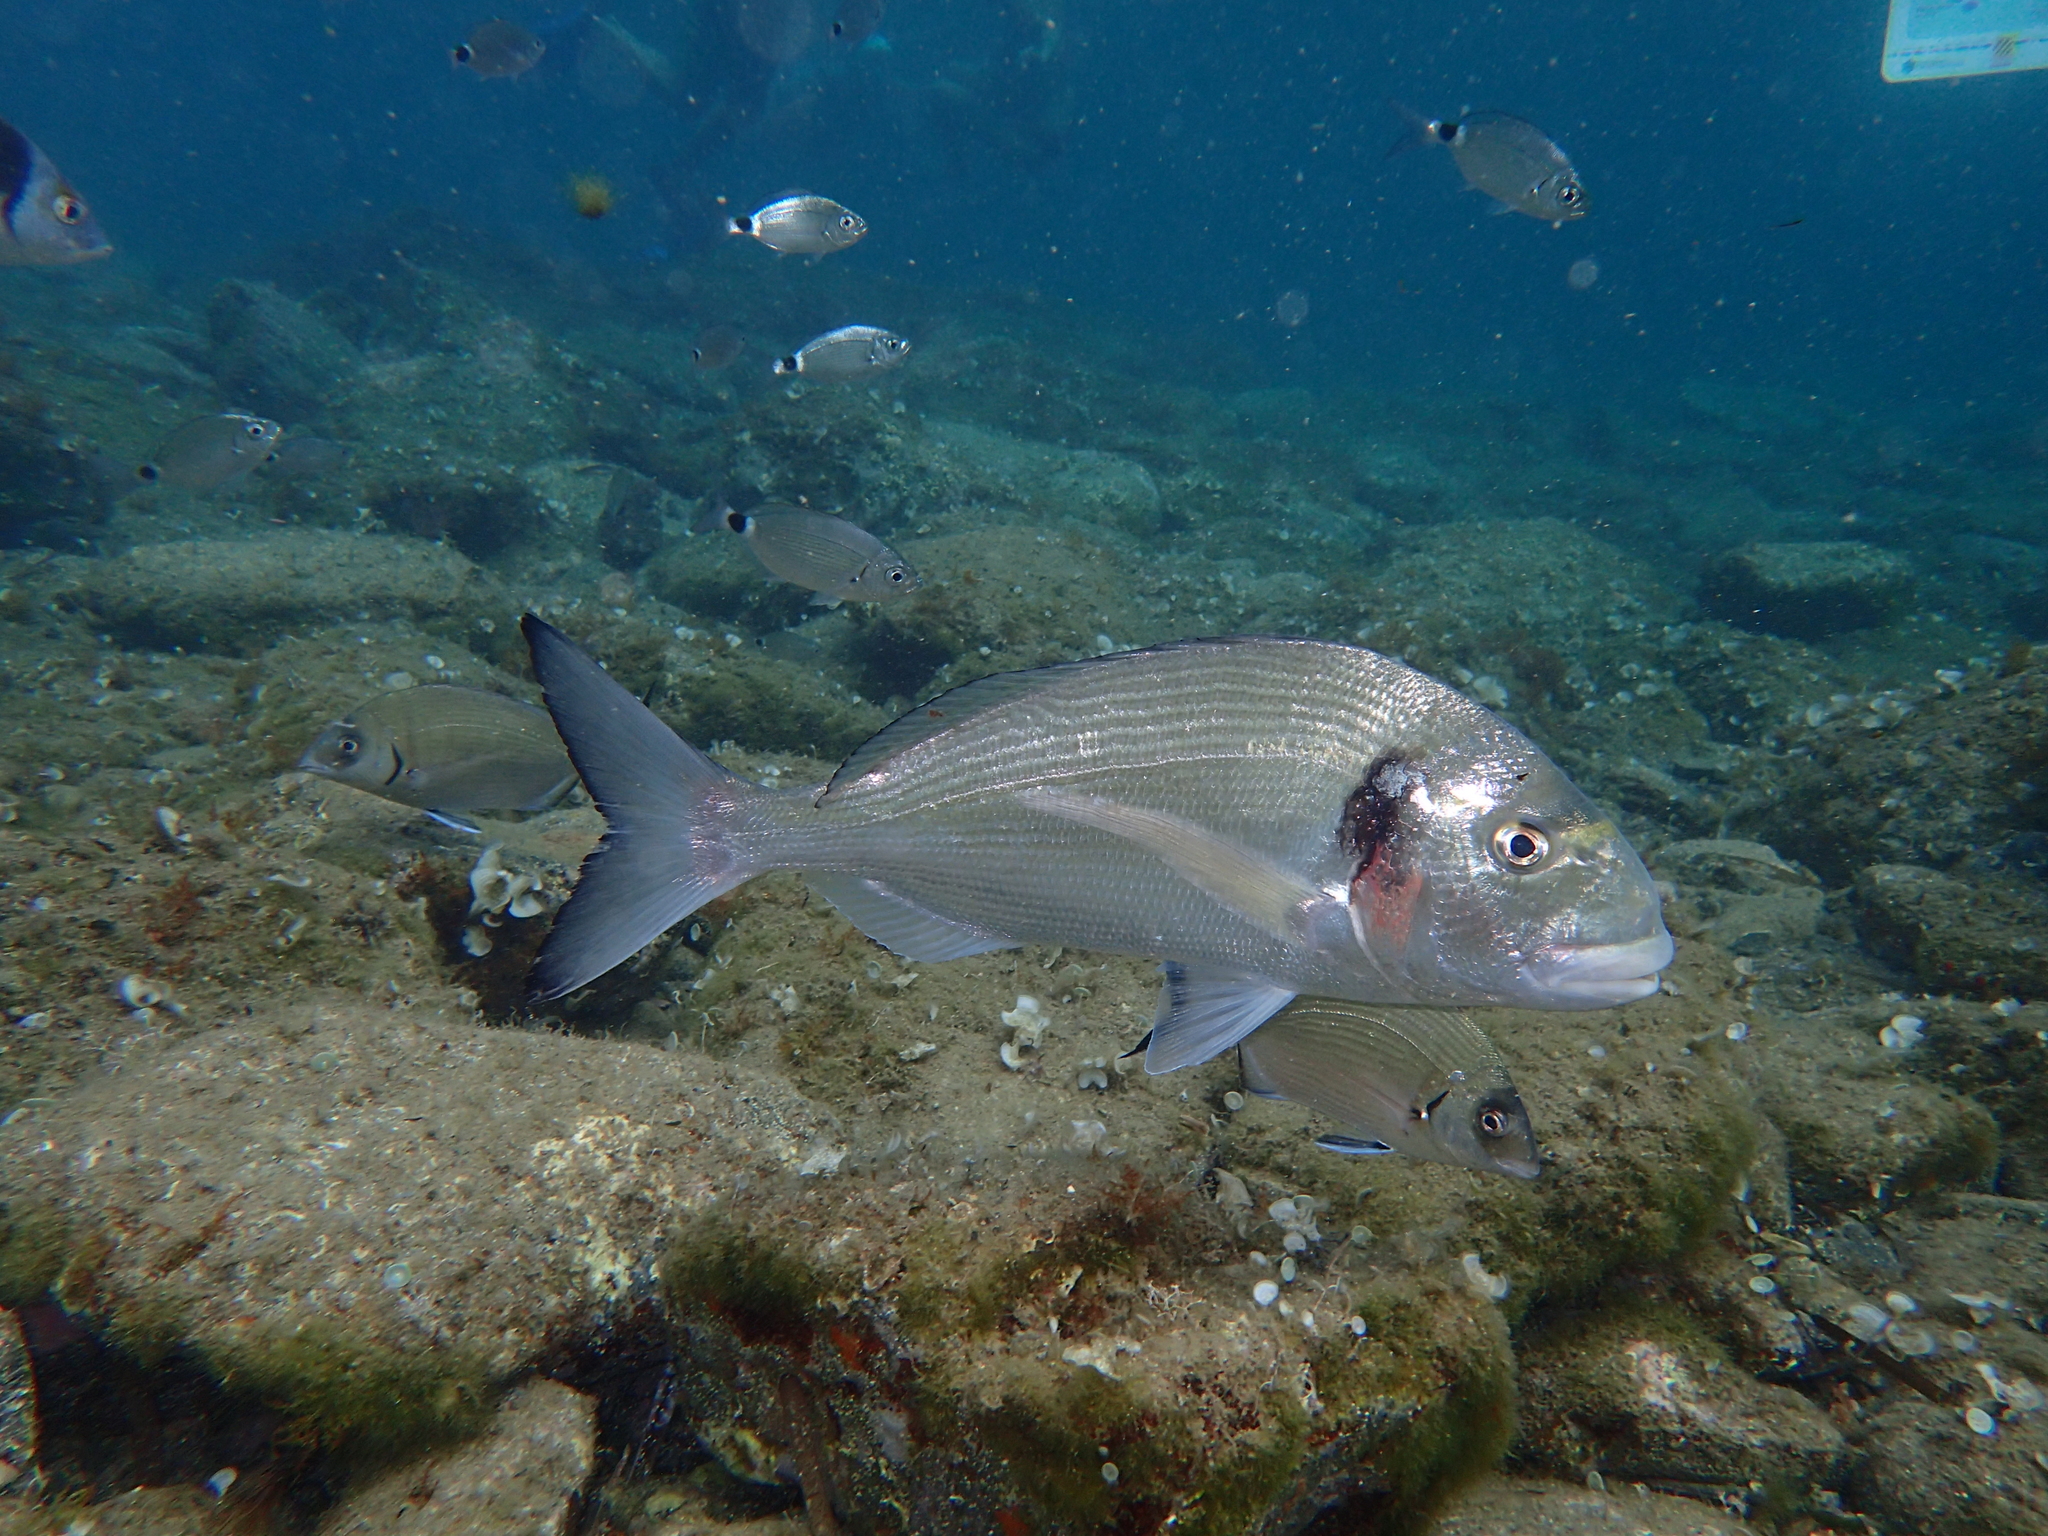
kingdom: Animalia
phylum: Chordata
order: Perciformes
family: Sparidae
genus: Sparus
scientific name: Sparus aurata
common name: Gilthead
